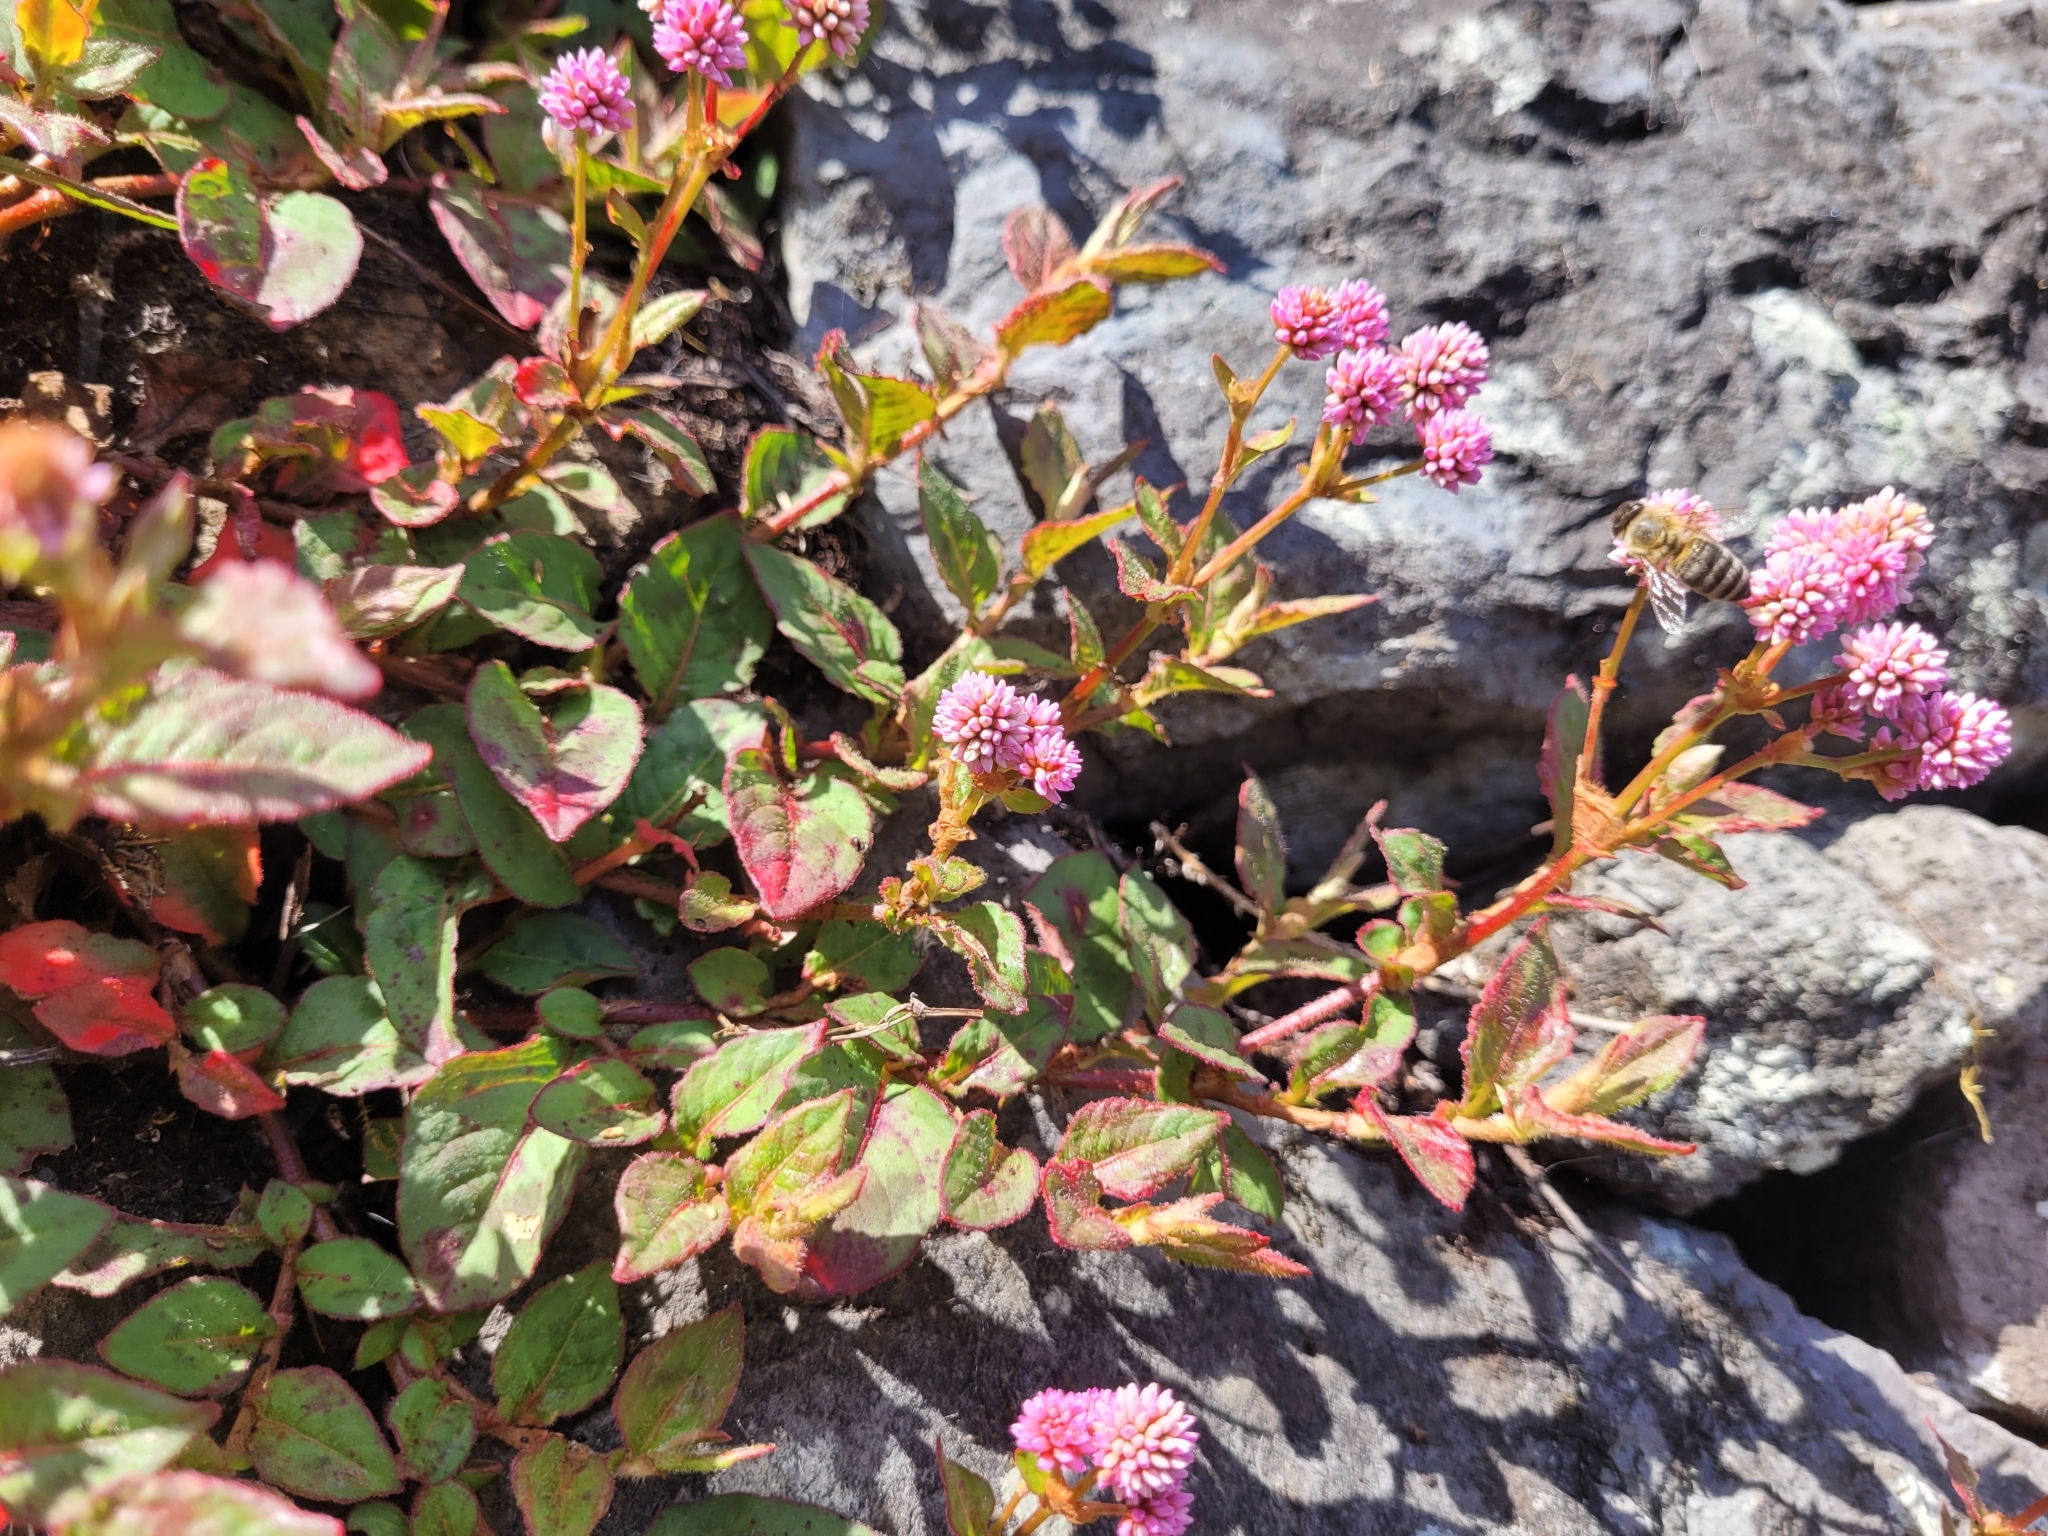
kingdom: Plantae
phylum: Tracheophyta
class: Magnoliopsida
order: Caryophyllales
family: Polygonaceae
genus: Persicaria
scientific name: Persicaria capitata
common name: Pinkhead smartweed
